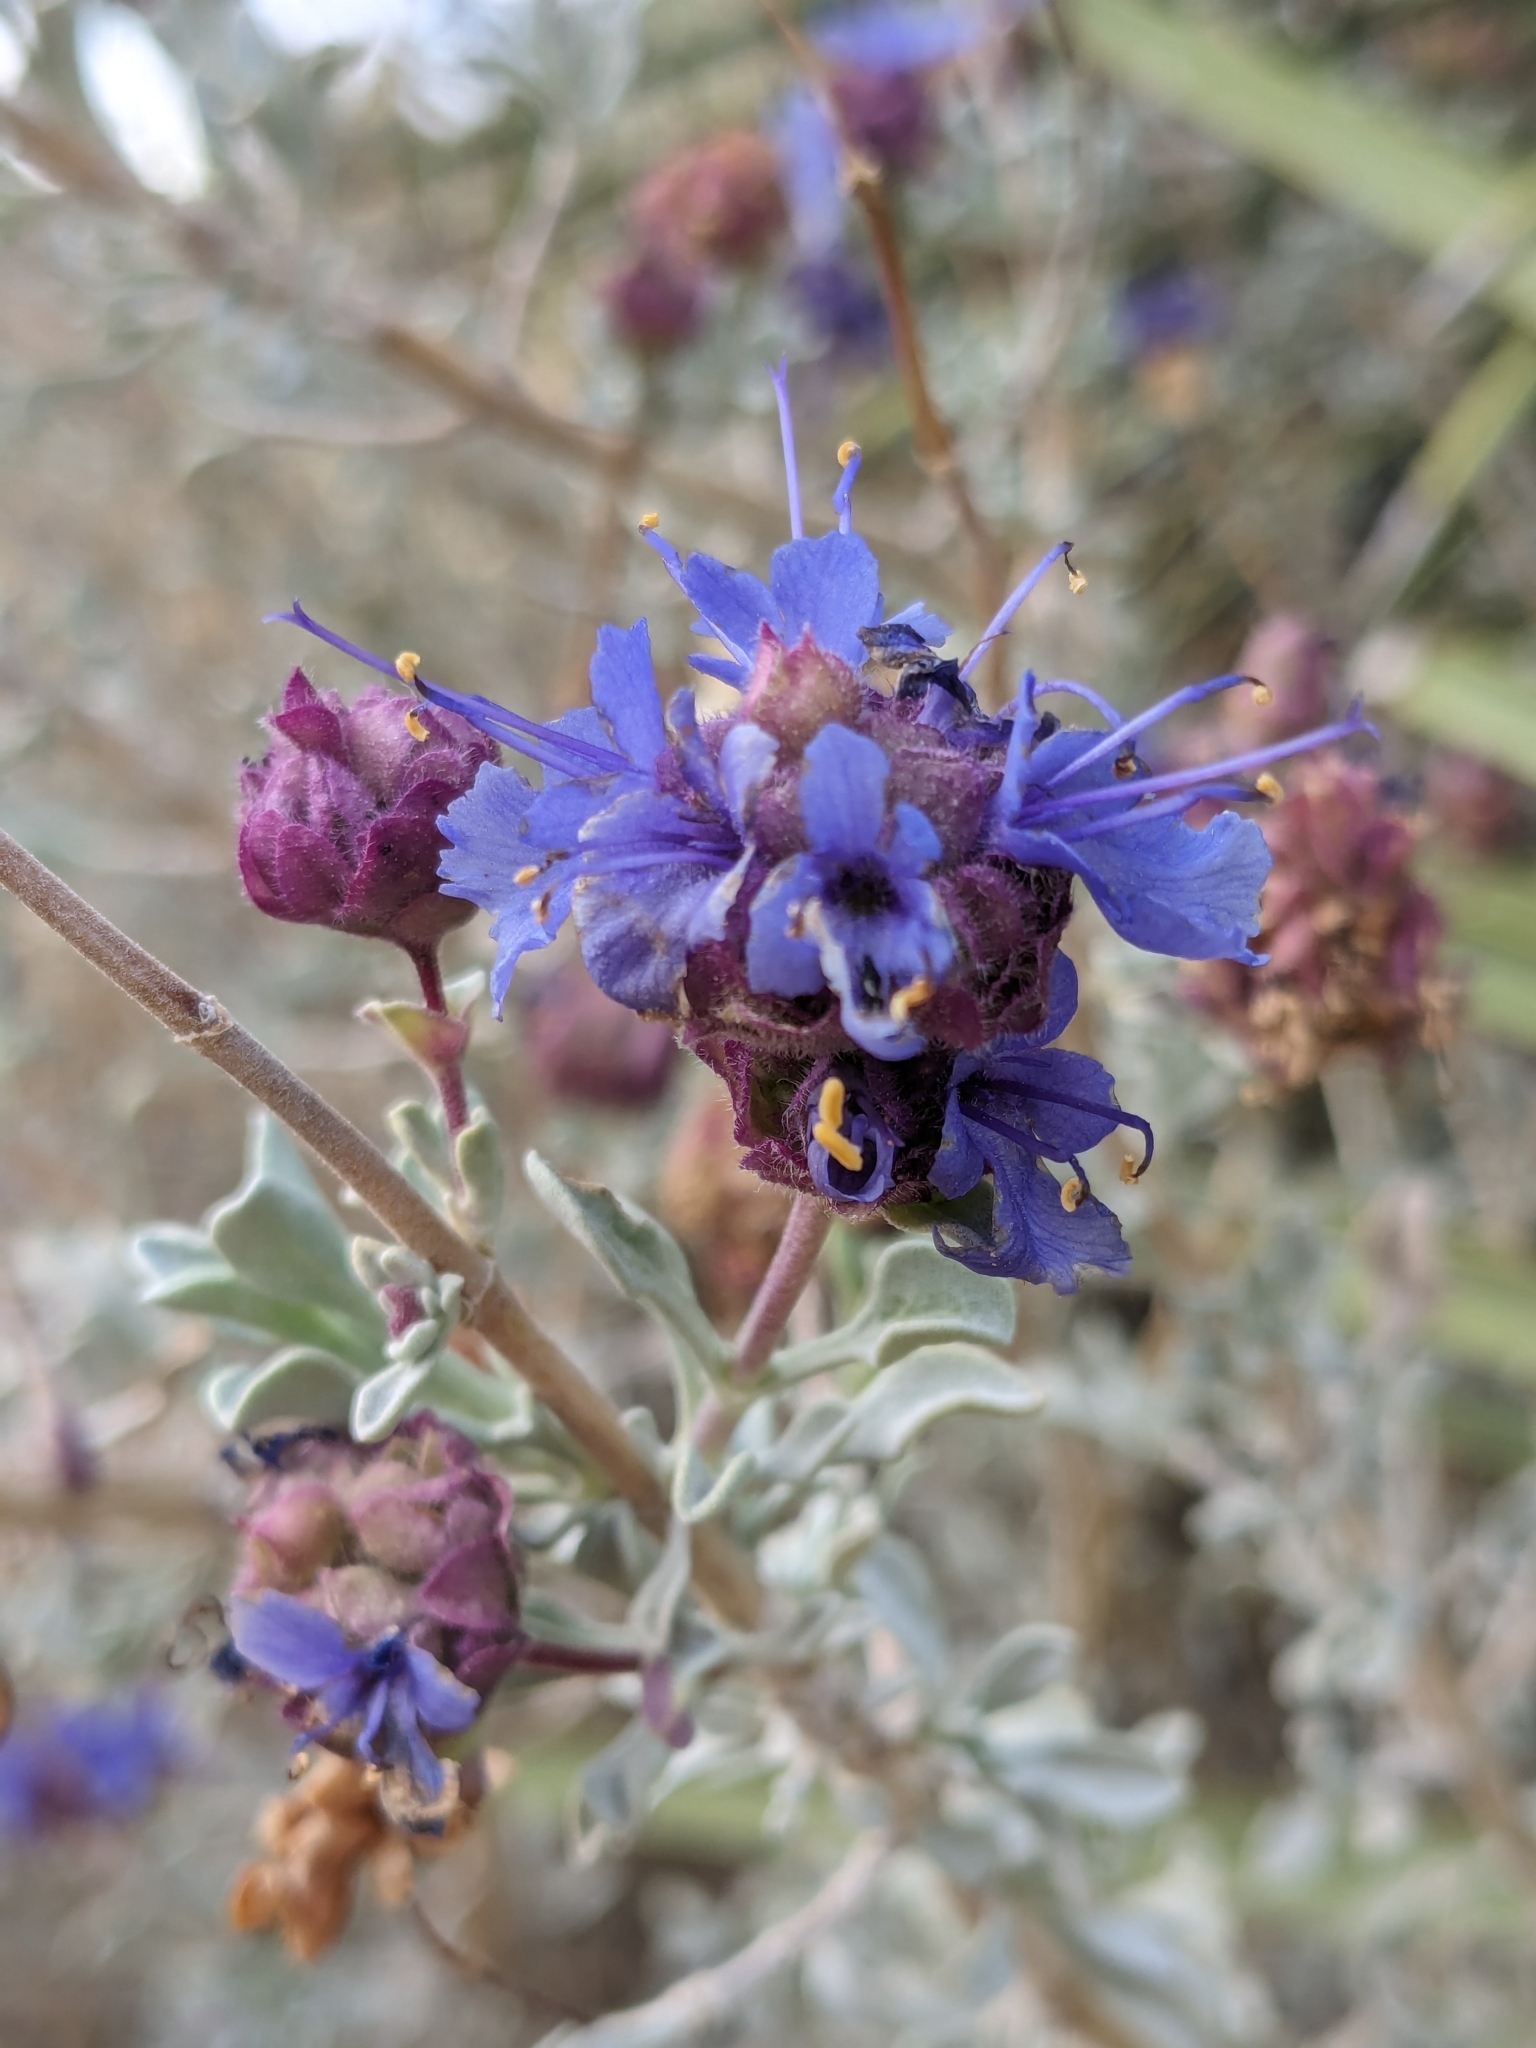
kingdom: Plantae
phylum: Tracheophyta
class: Magnoliopsida
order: Lamiales
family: Lamiaceae
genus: Salvia
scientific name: Salvia dorrii
